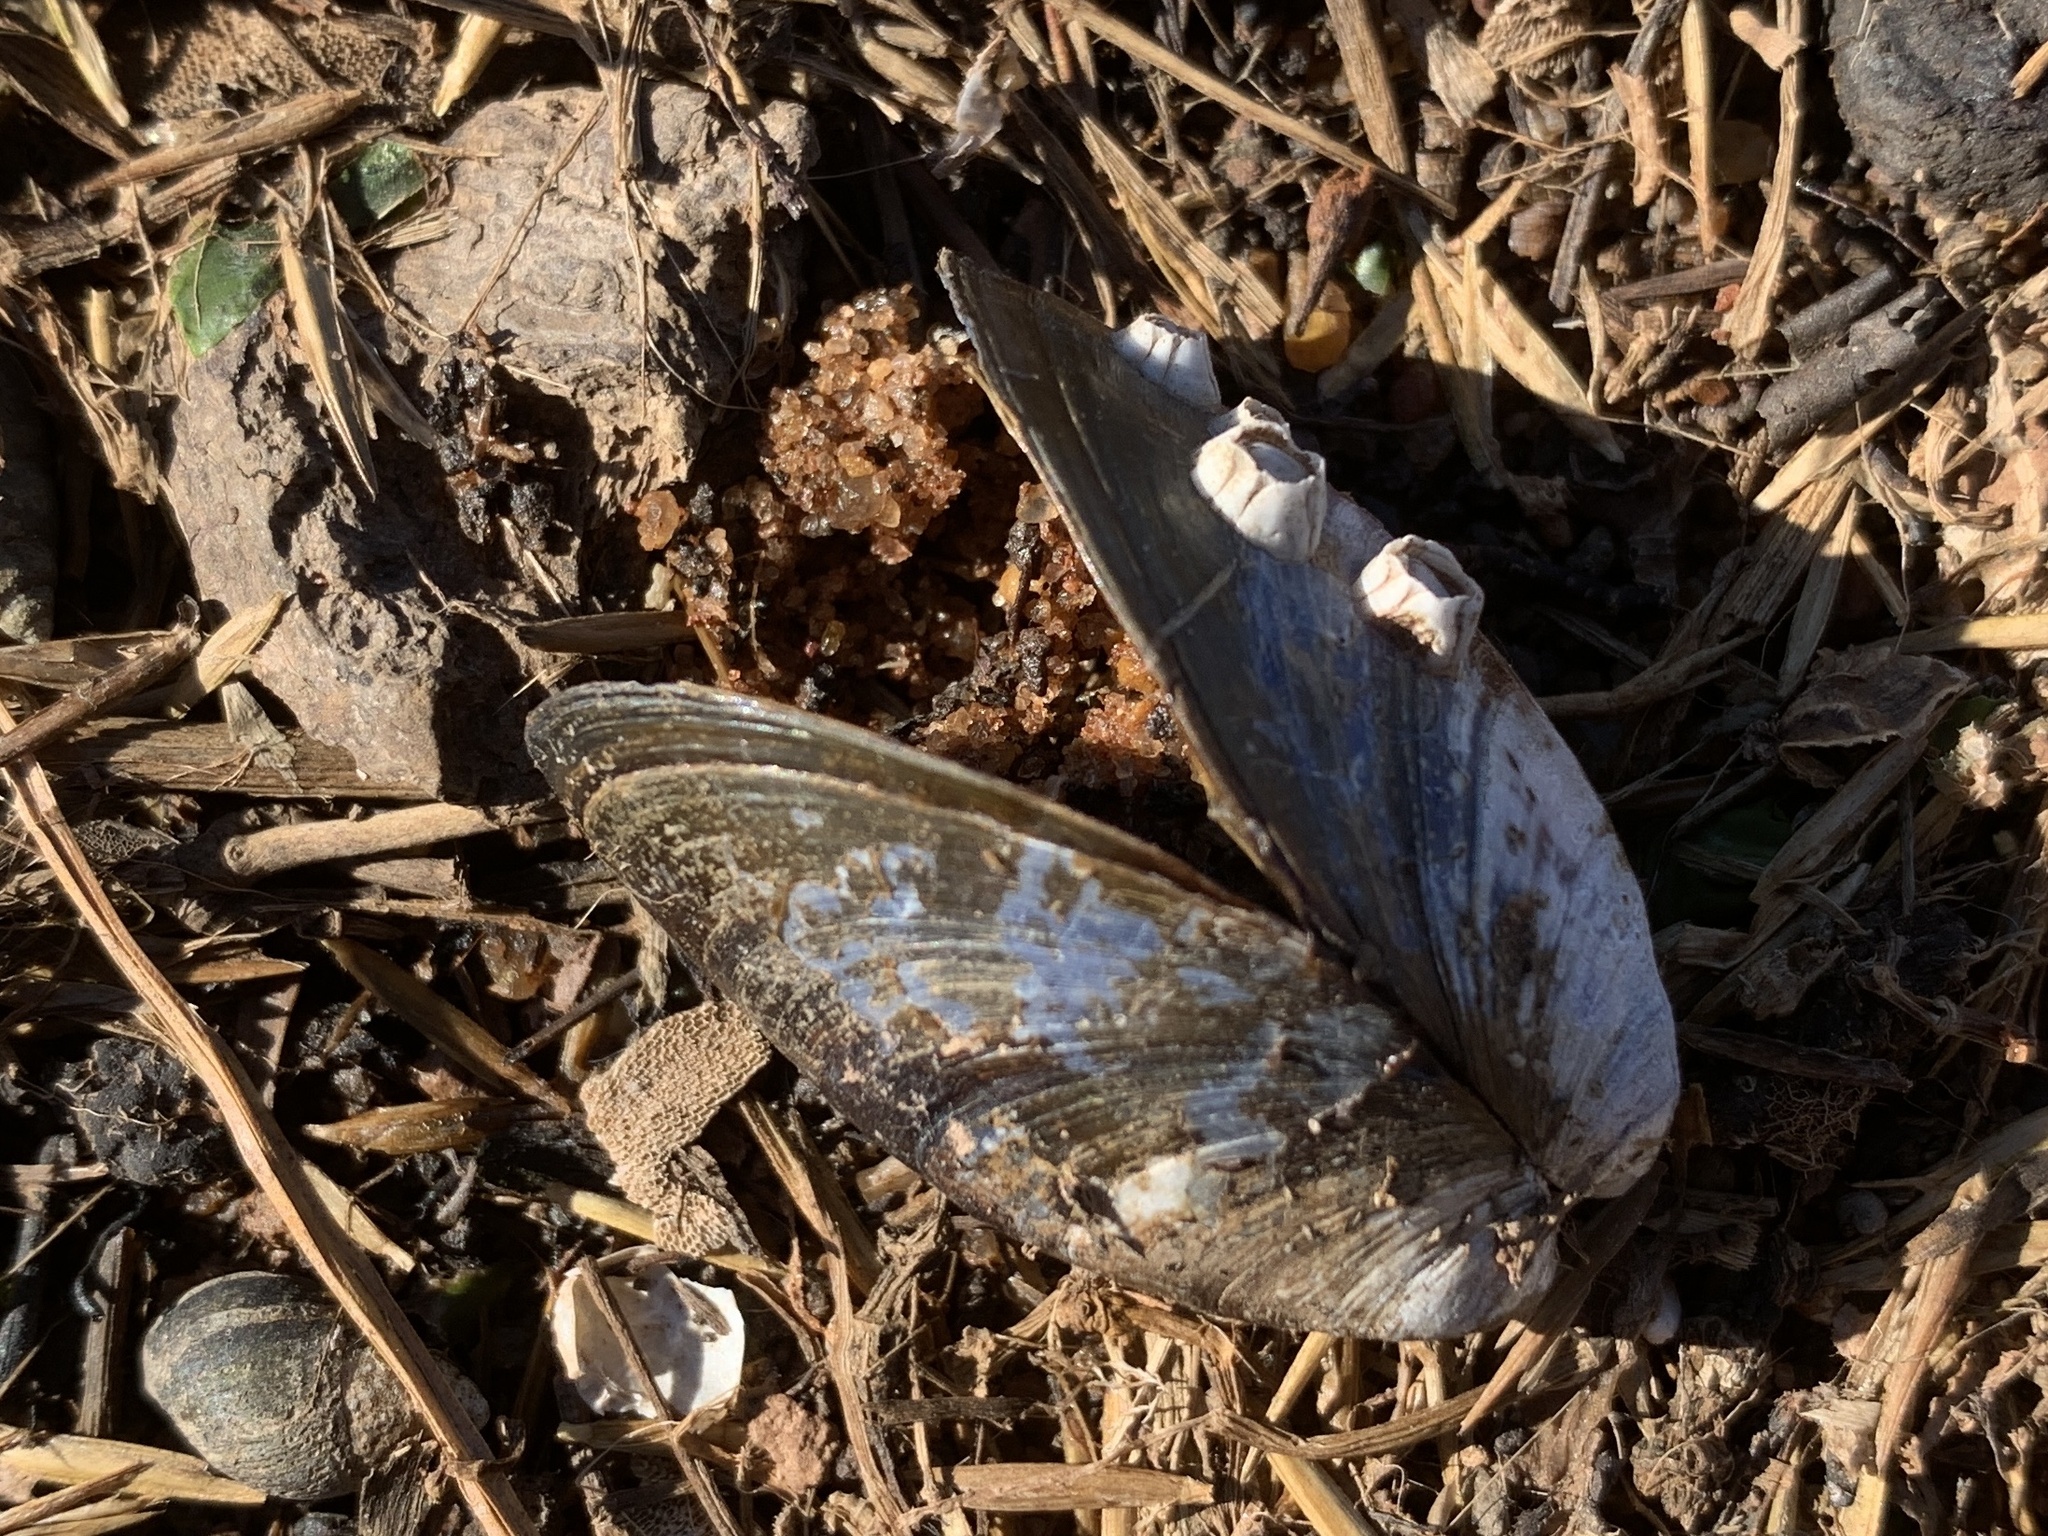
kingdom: Animalia
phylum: Mollusca
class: Bivalvia
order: Mytilida
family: Mytilidae
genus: Mytilus
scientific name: Mytilus
